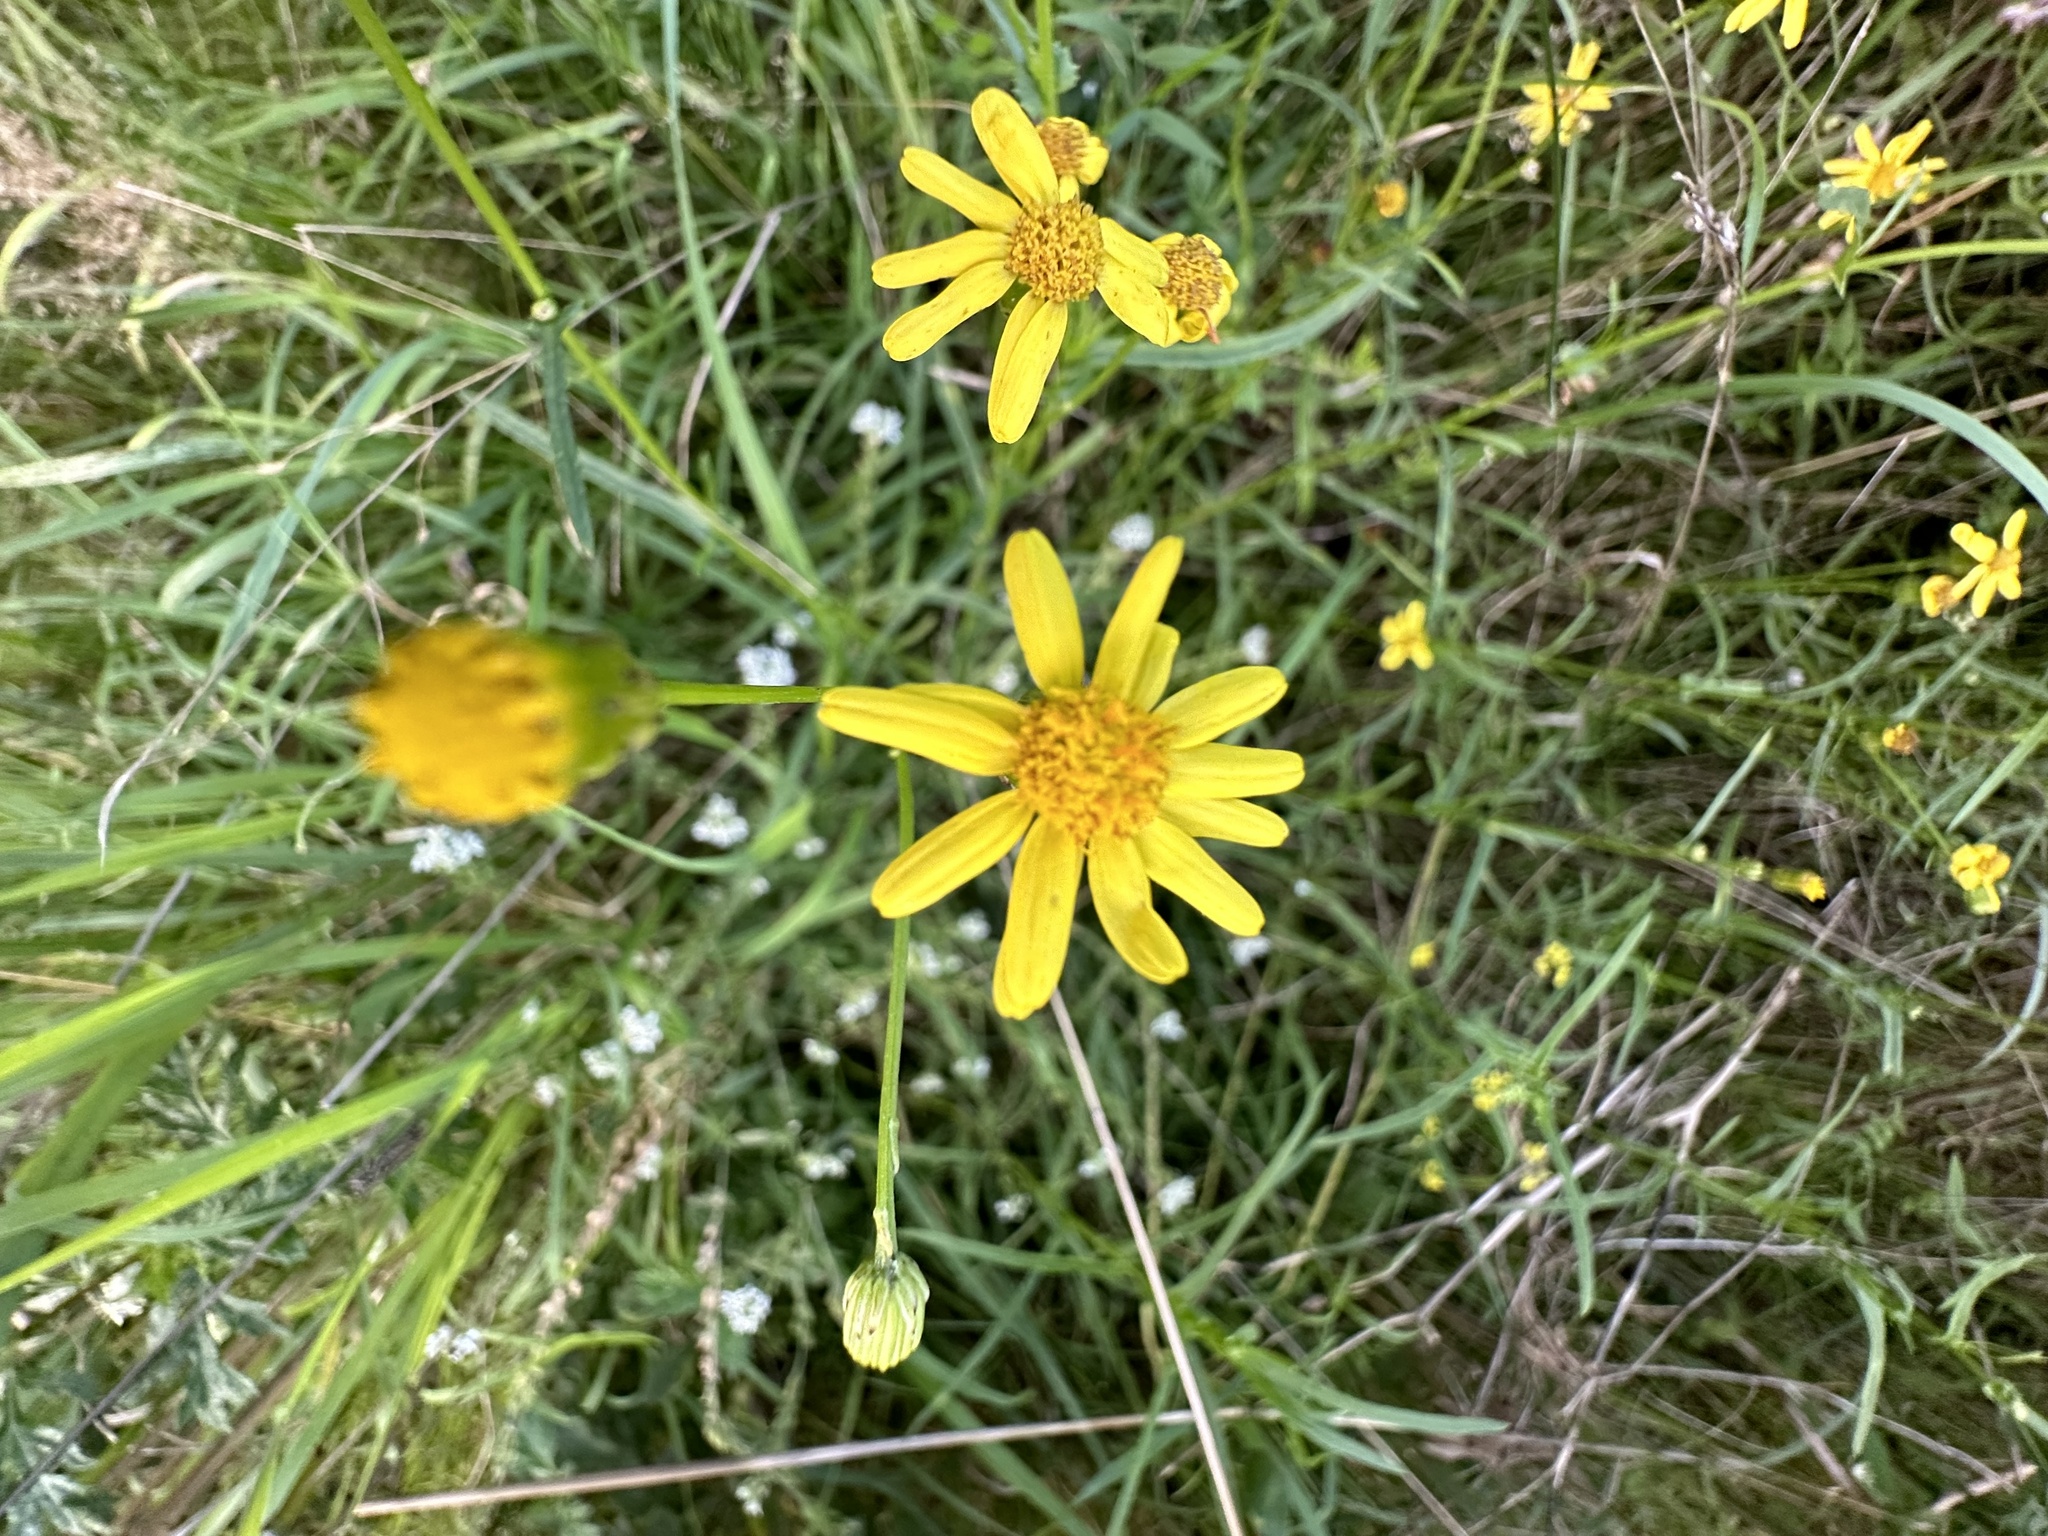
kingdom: Plantae
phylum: Tracheophyta
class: Magnoliopsida
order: Asterales
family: Asteraceae
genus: Senecio
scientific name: Senecio inaequidens
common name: Narrow-leaved ragwort
